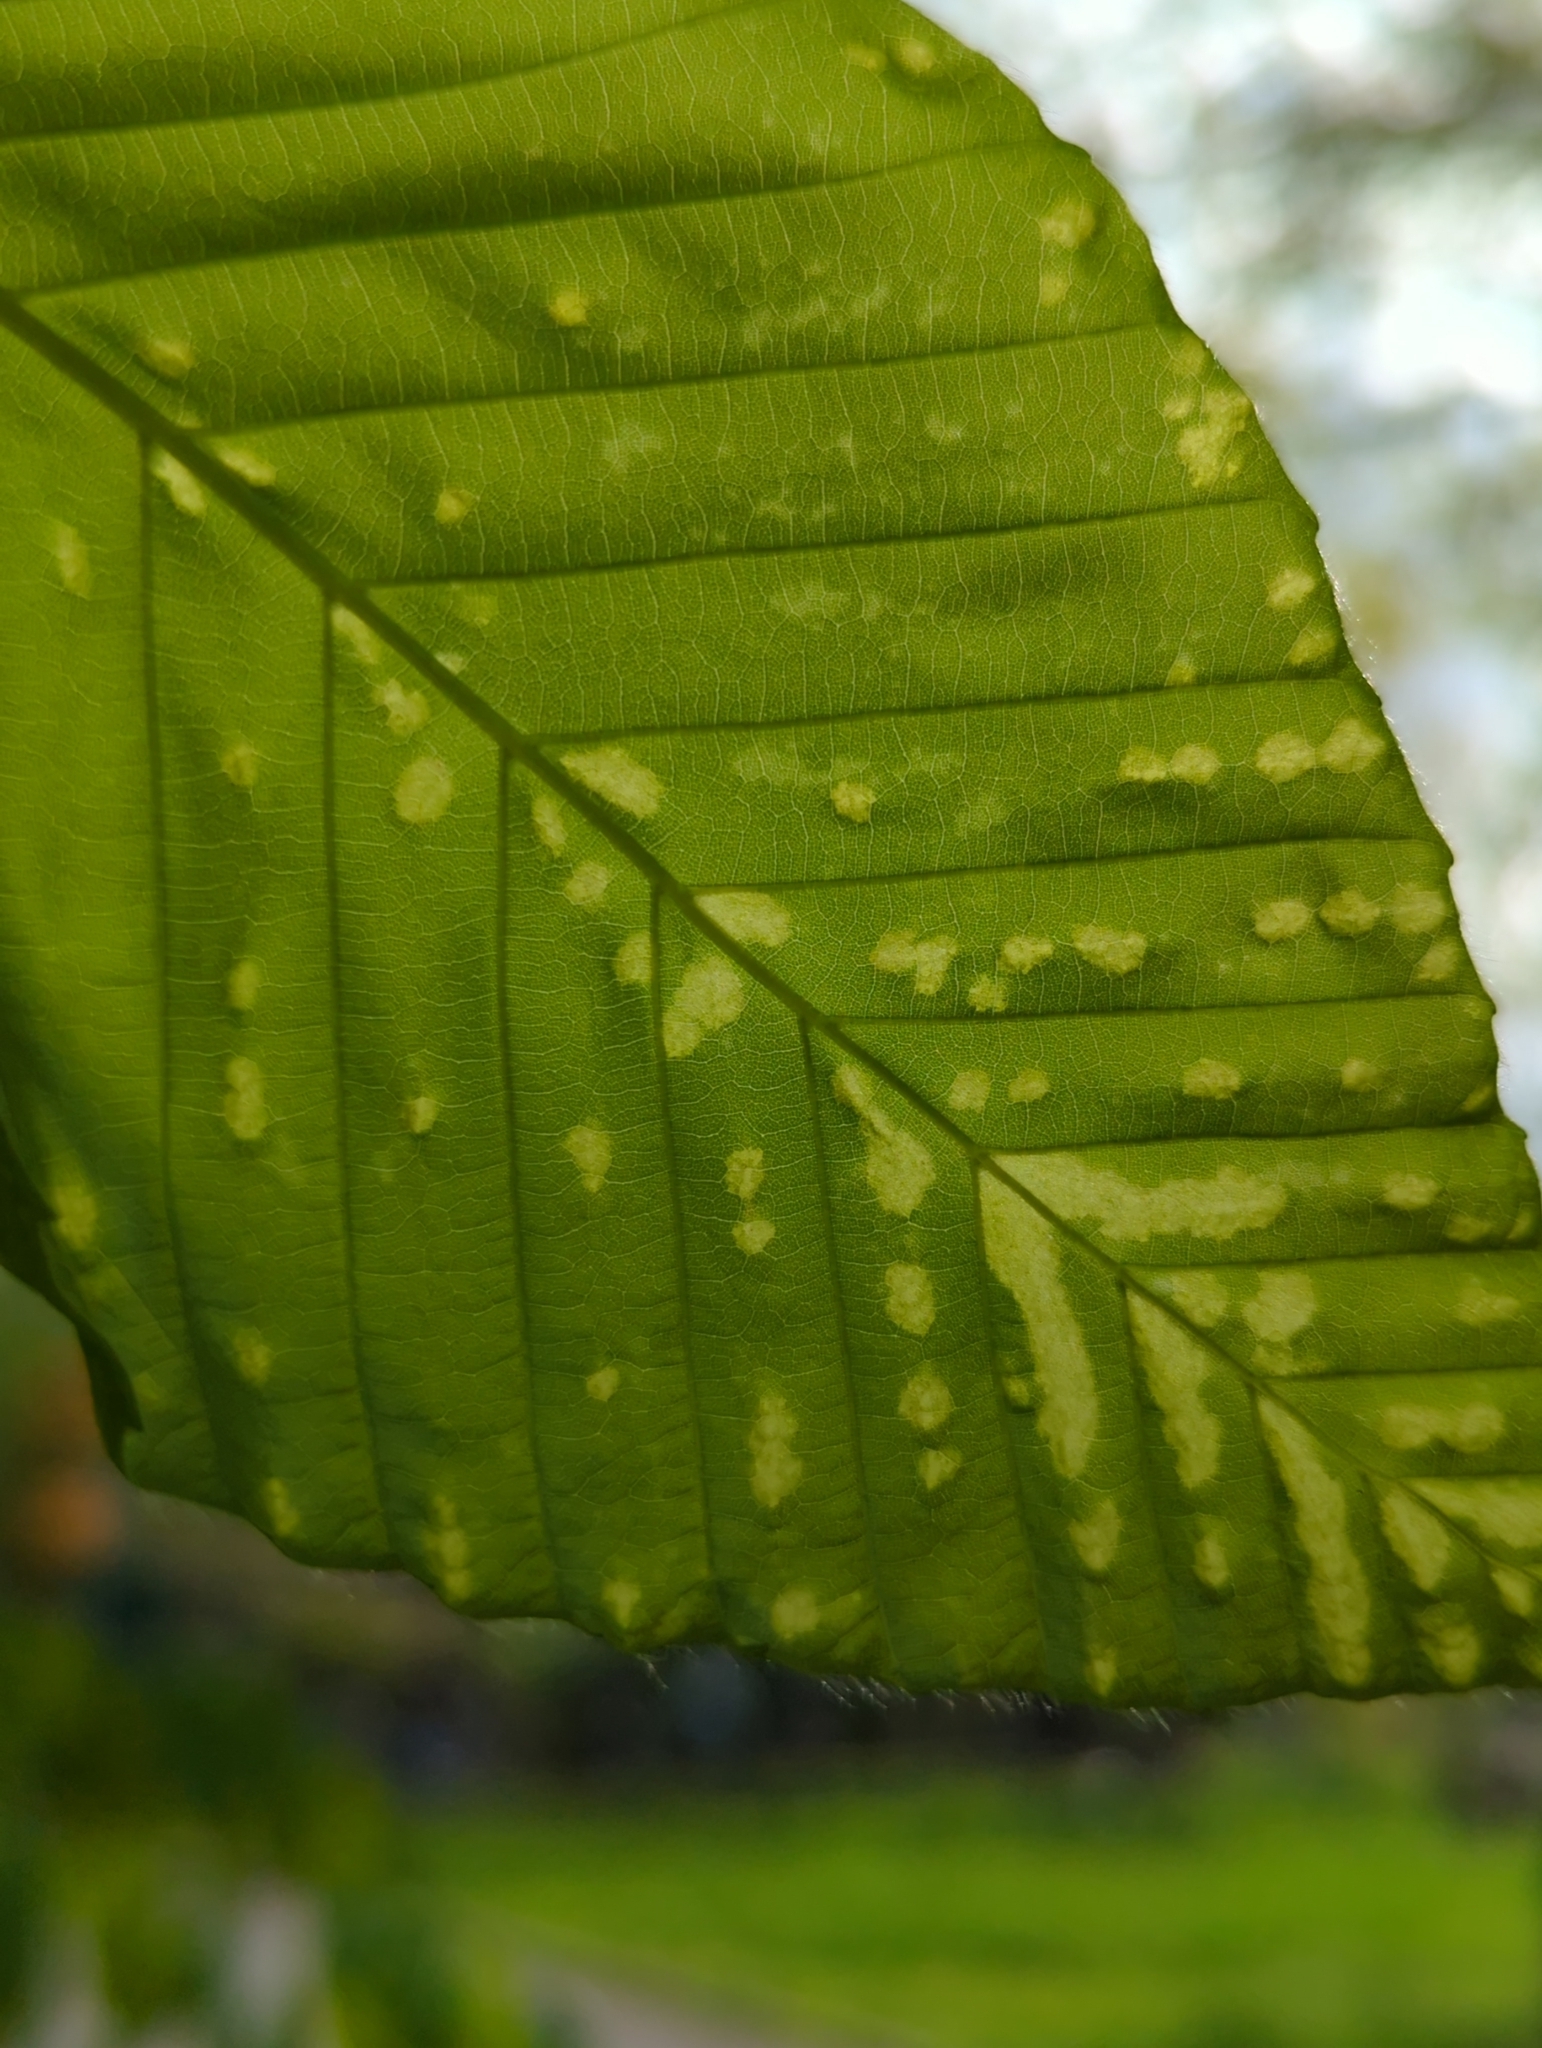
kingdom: Animalia
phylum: Arthropoda
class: Arachnida
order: Trombidiformes
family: Eriophyidae
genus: Acalitus
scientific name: Acalitus
